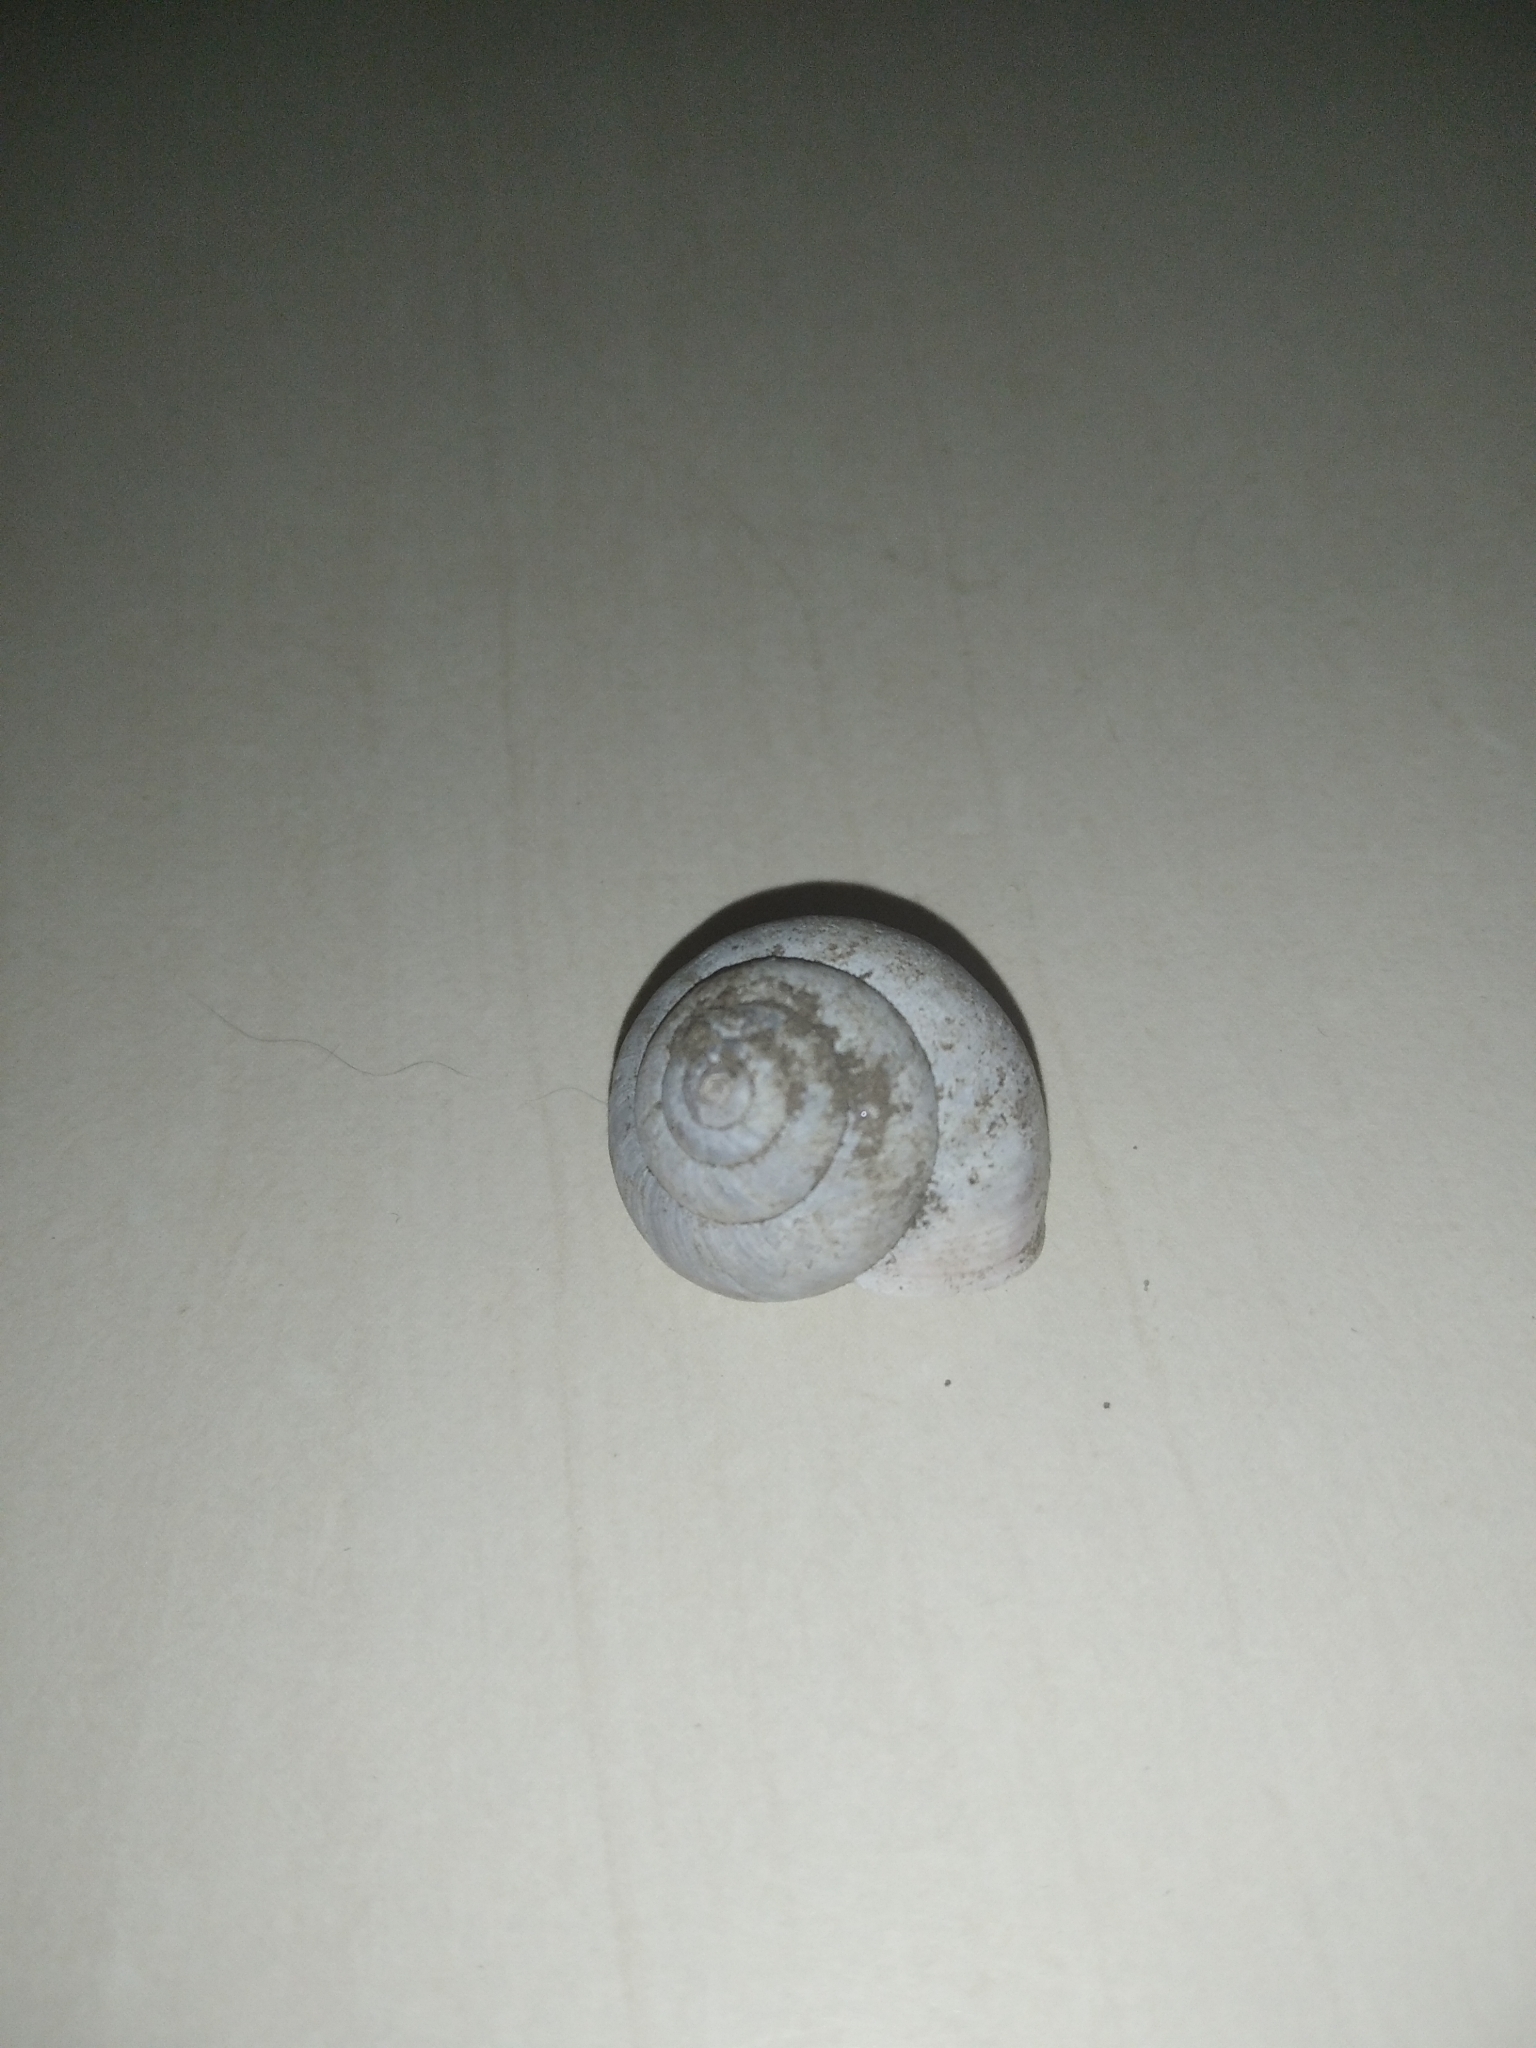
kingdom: Animalia
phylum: Mollusca
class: Gastropoda
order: Stylommatophora
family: Camaenidae
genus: Fruticicola
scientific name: Fruticicola fruticum
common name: Bush snail
